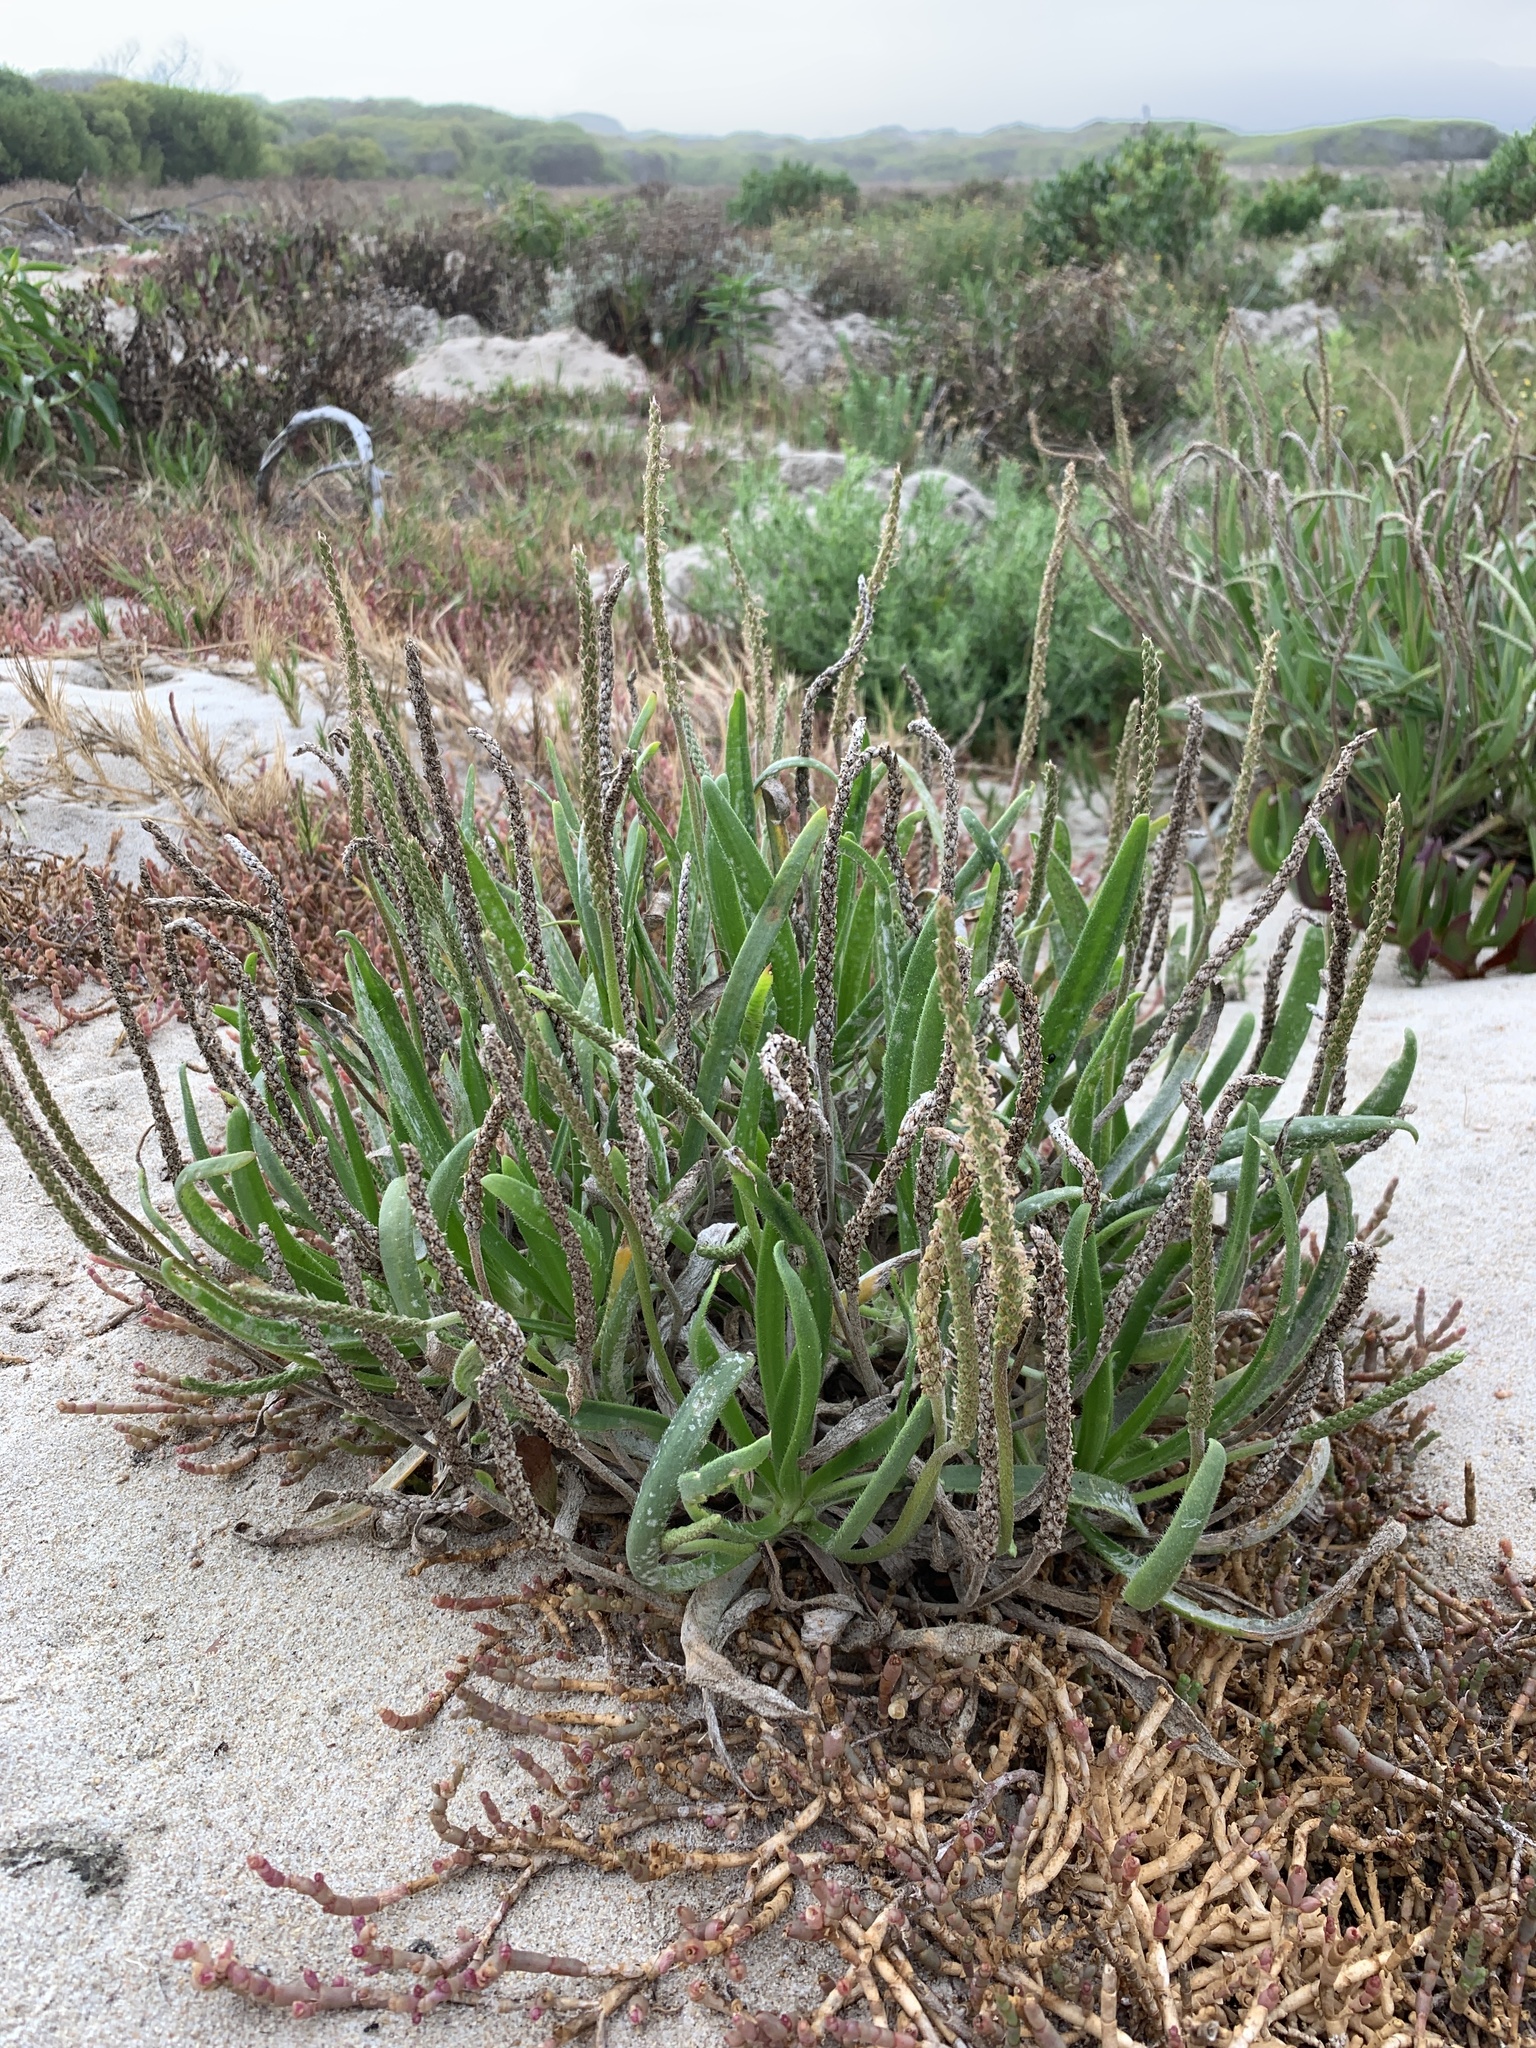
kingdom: Plantae
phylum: Tracheophyta
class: Magnoliopsida
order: Lamiales
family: Plantaginaceae
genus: Plantago
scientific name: Plantago carnosa
